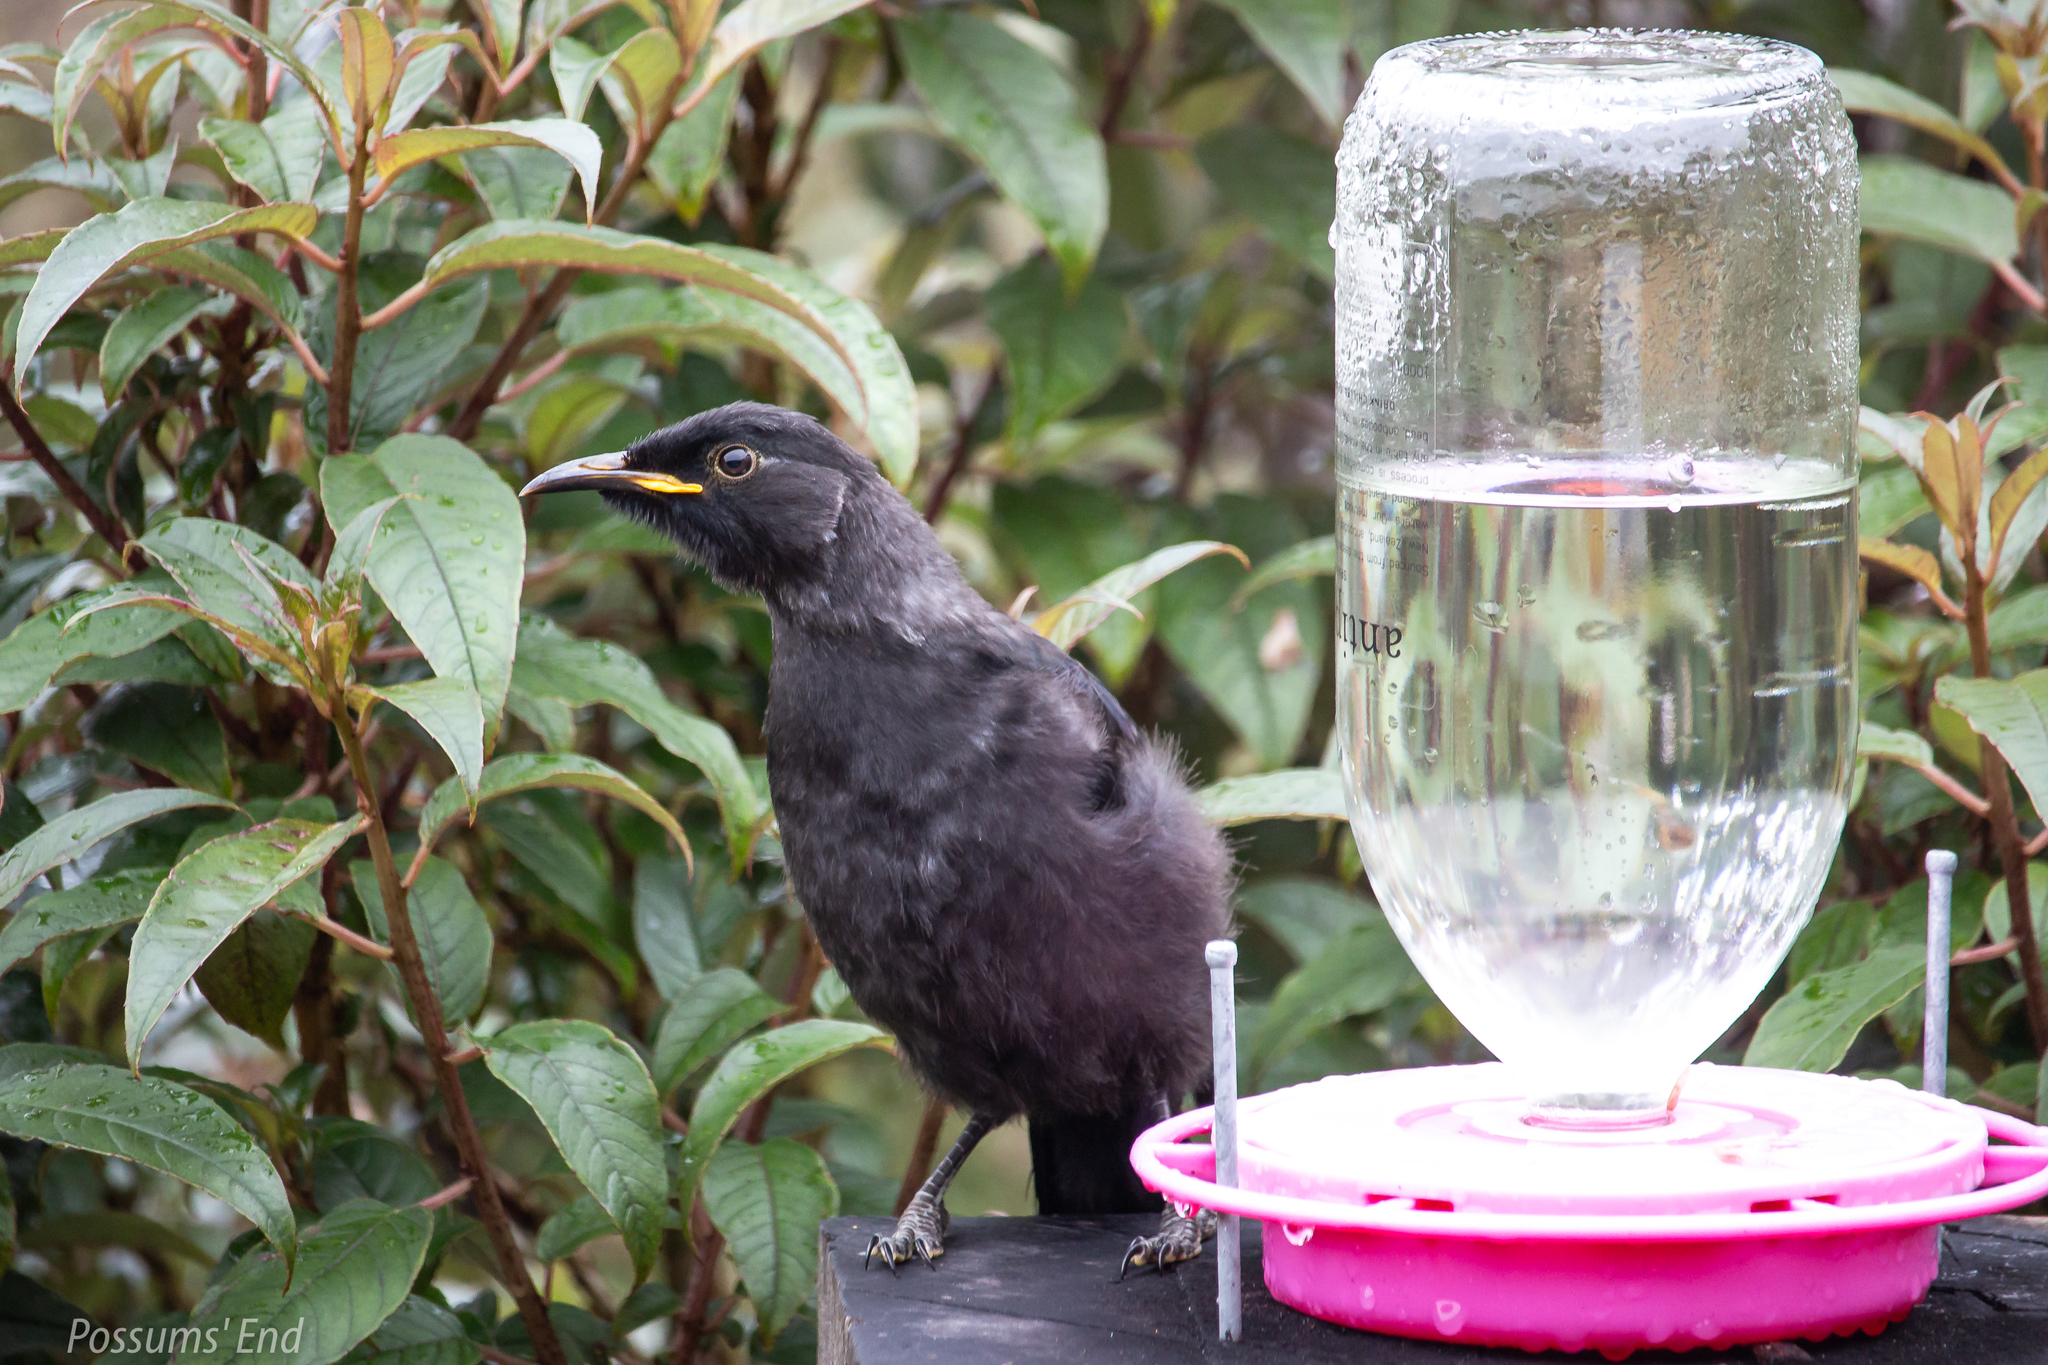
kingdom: Animalia
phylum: Chordata
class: Aves
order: Passeriformes
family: Meliphagidae
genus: Prosthemadera
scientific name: Prosthemadera novaeseelandiae
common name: Tui
